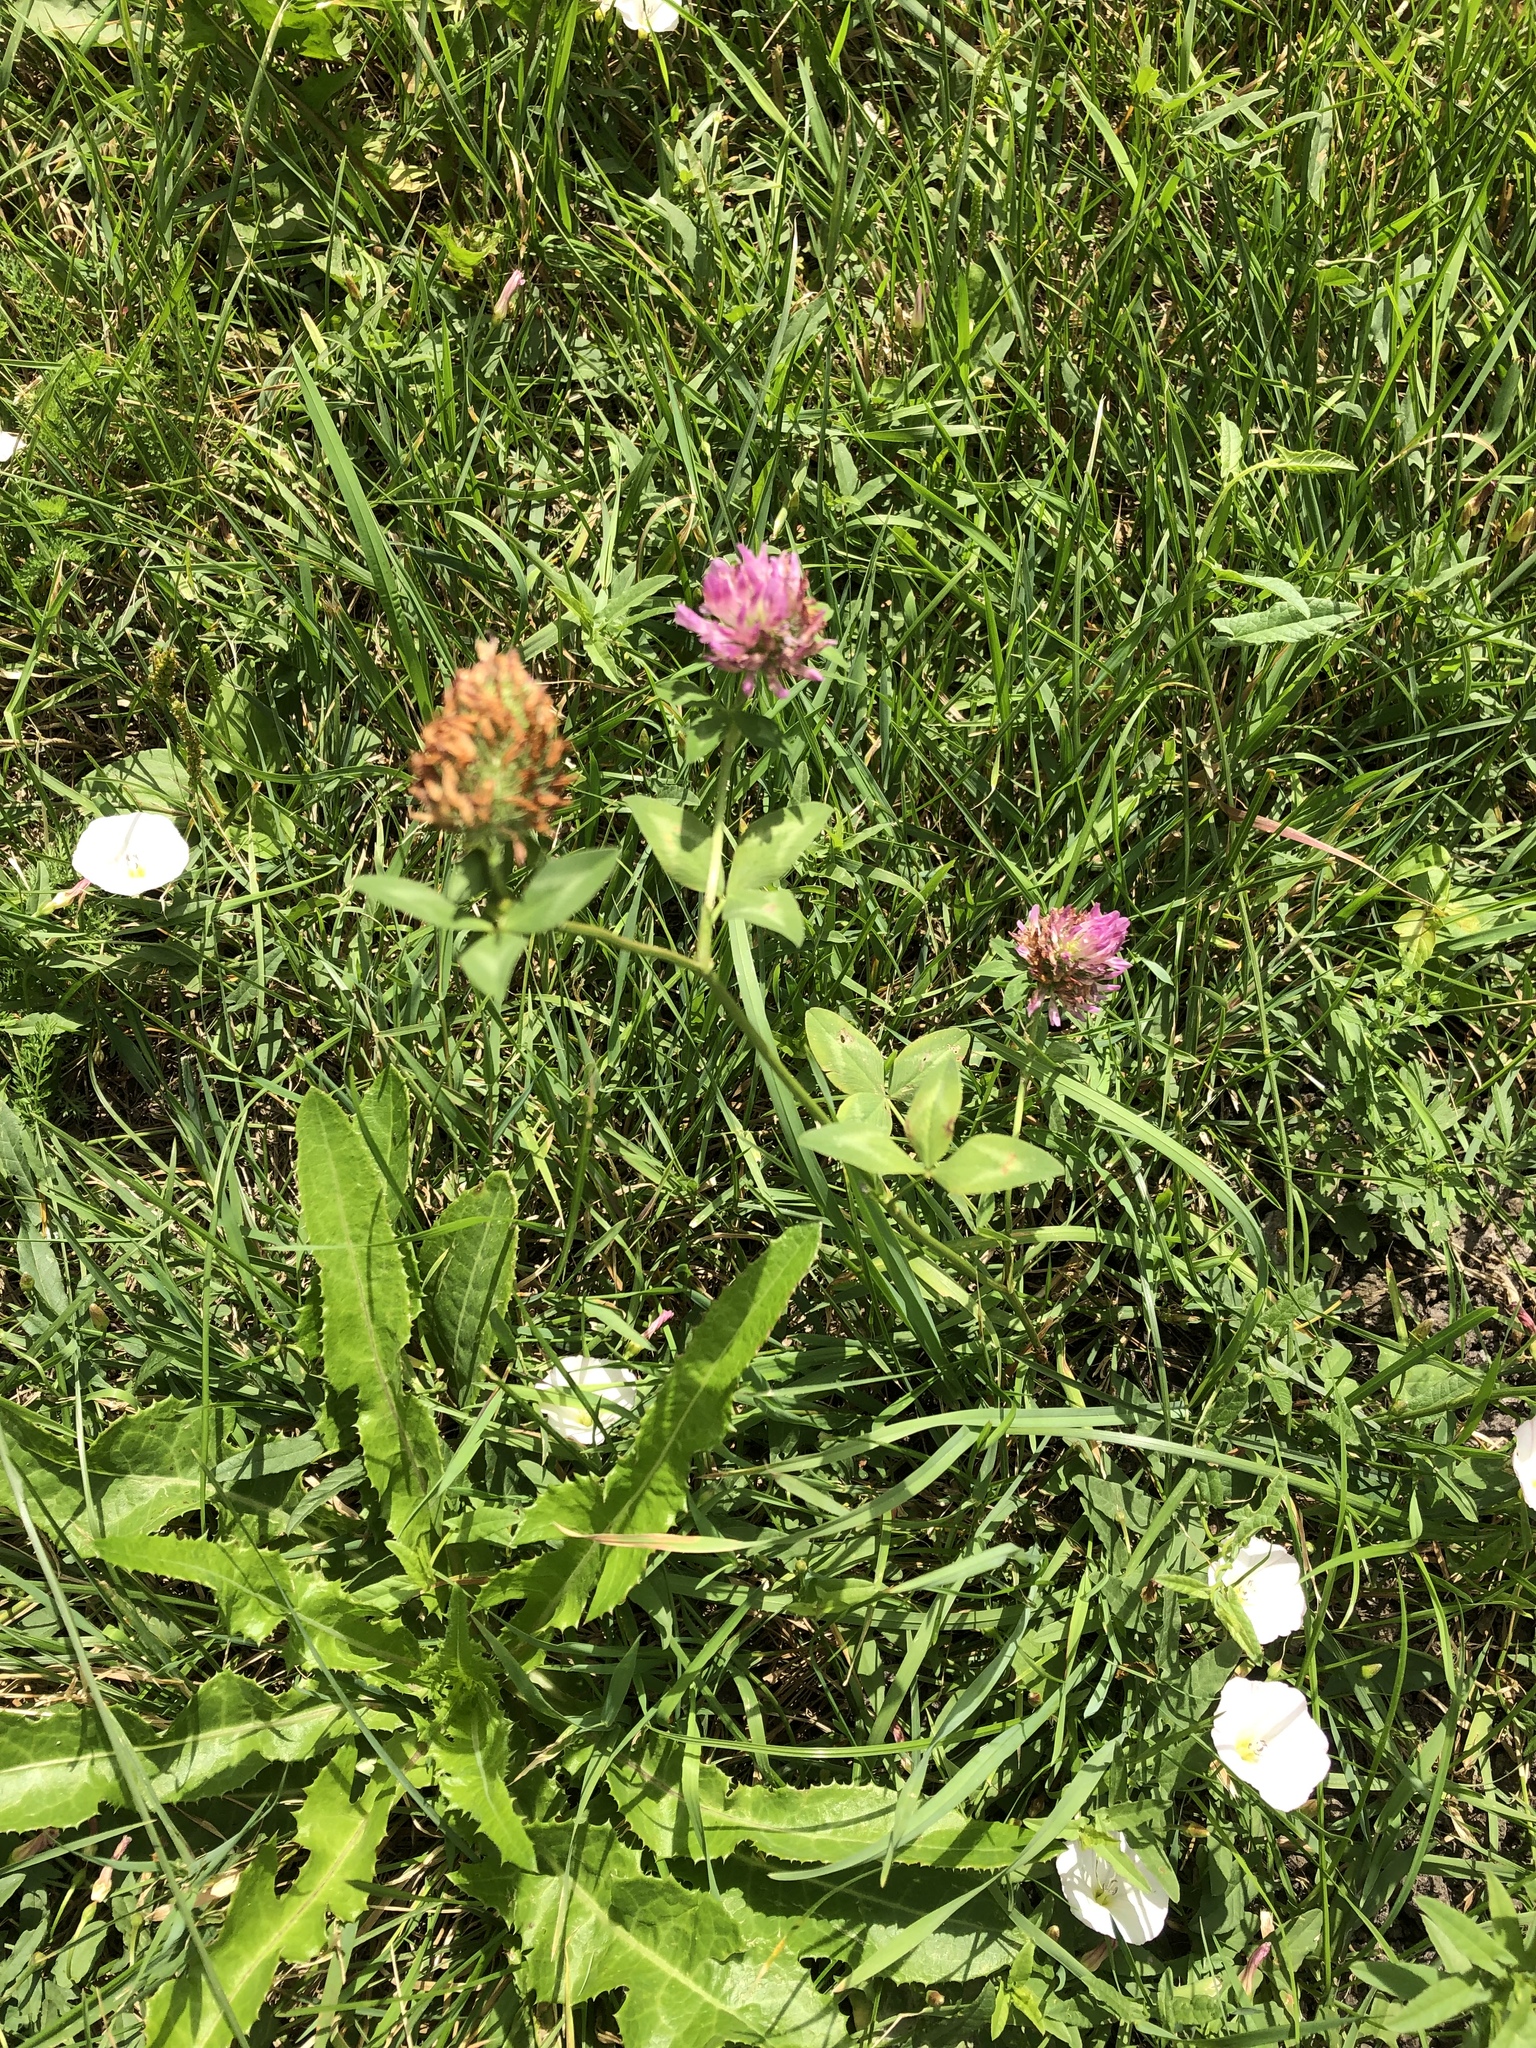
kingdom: Plantae
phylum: Tracheophyta
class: Magnoliopsida
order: Fabales
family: Fabaceae
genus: Trifolium
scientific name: Trifolium pratense
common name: Red clover
